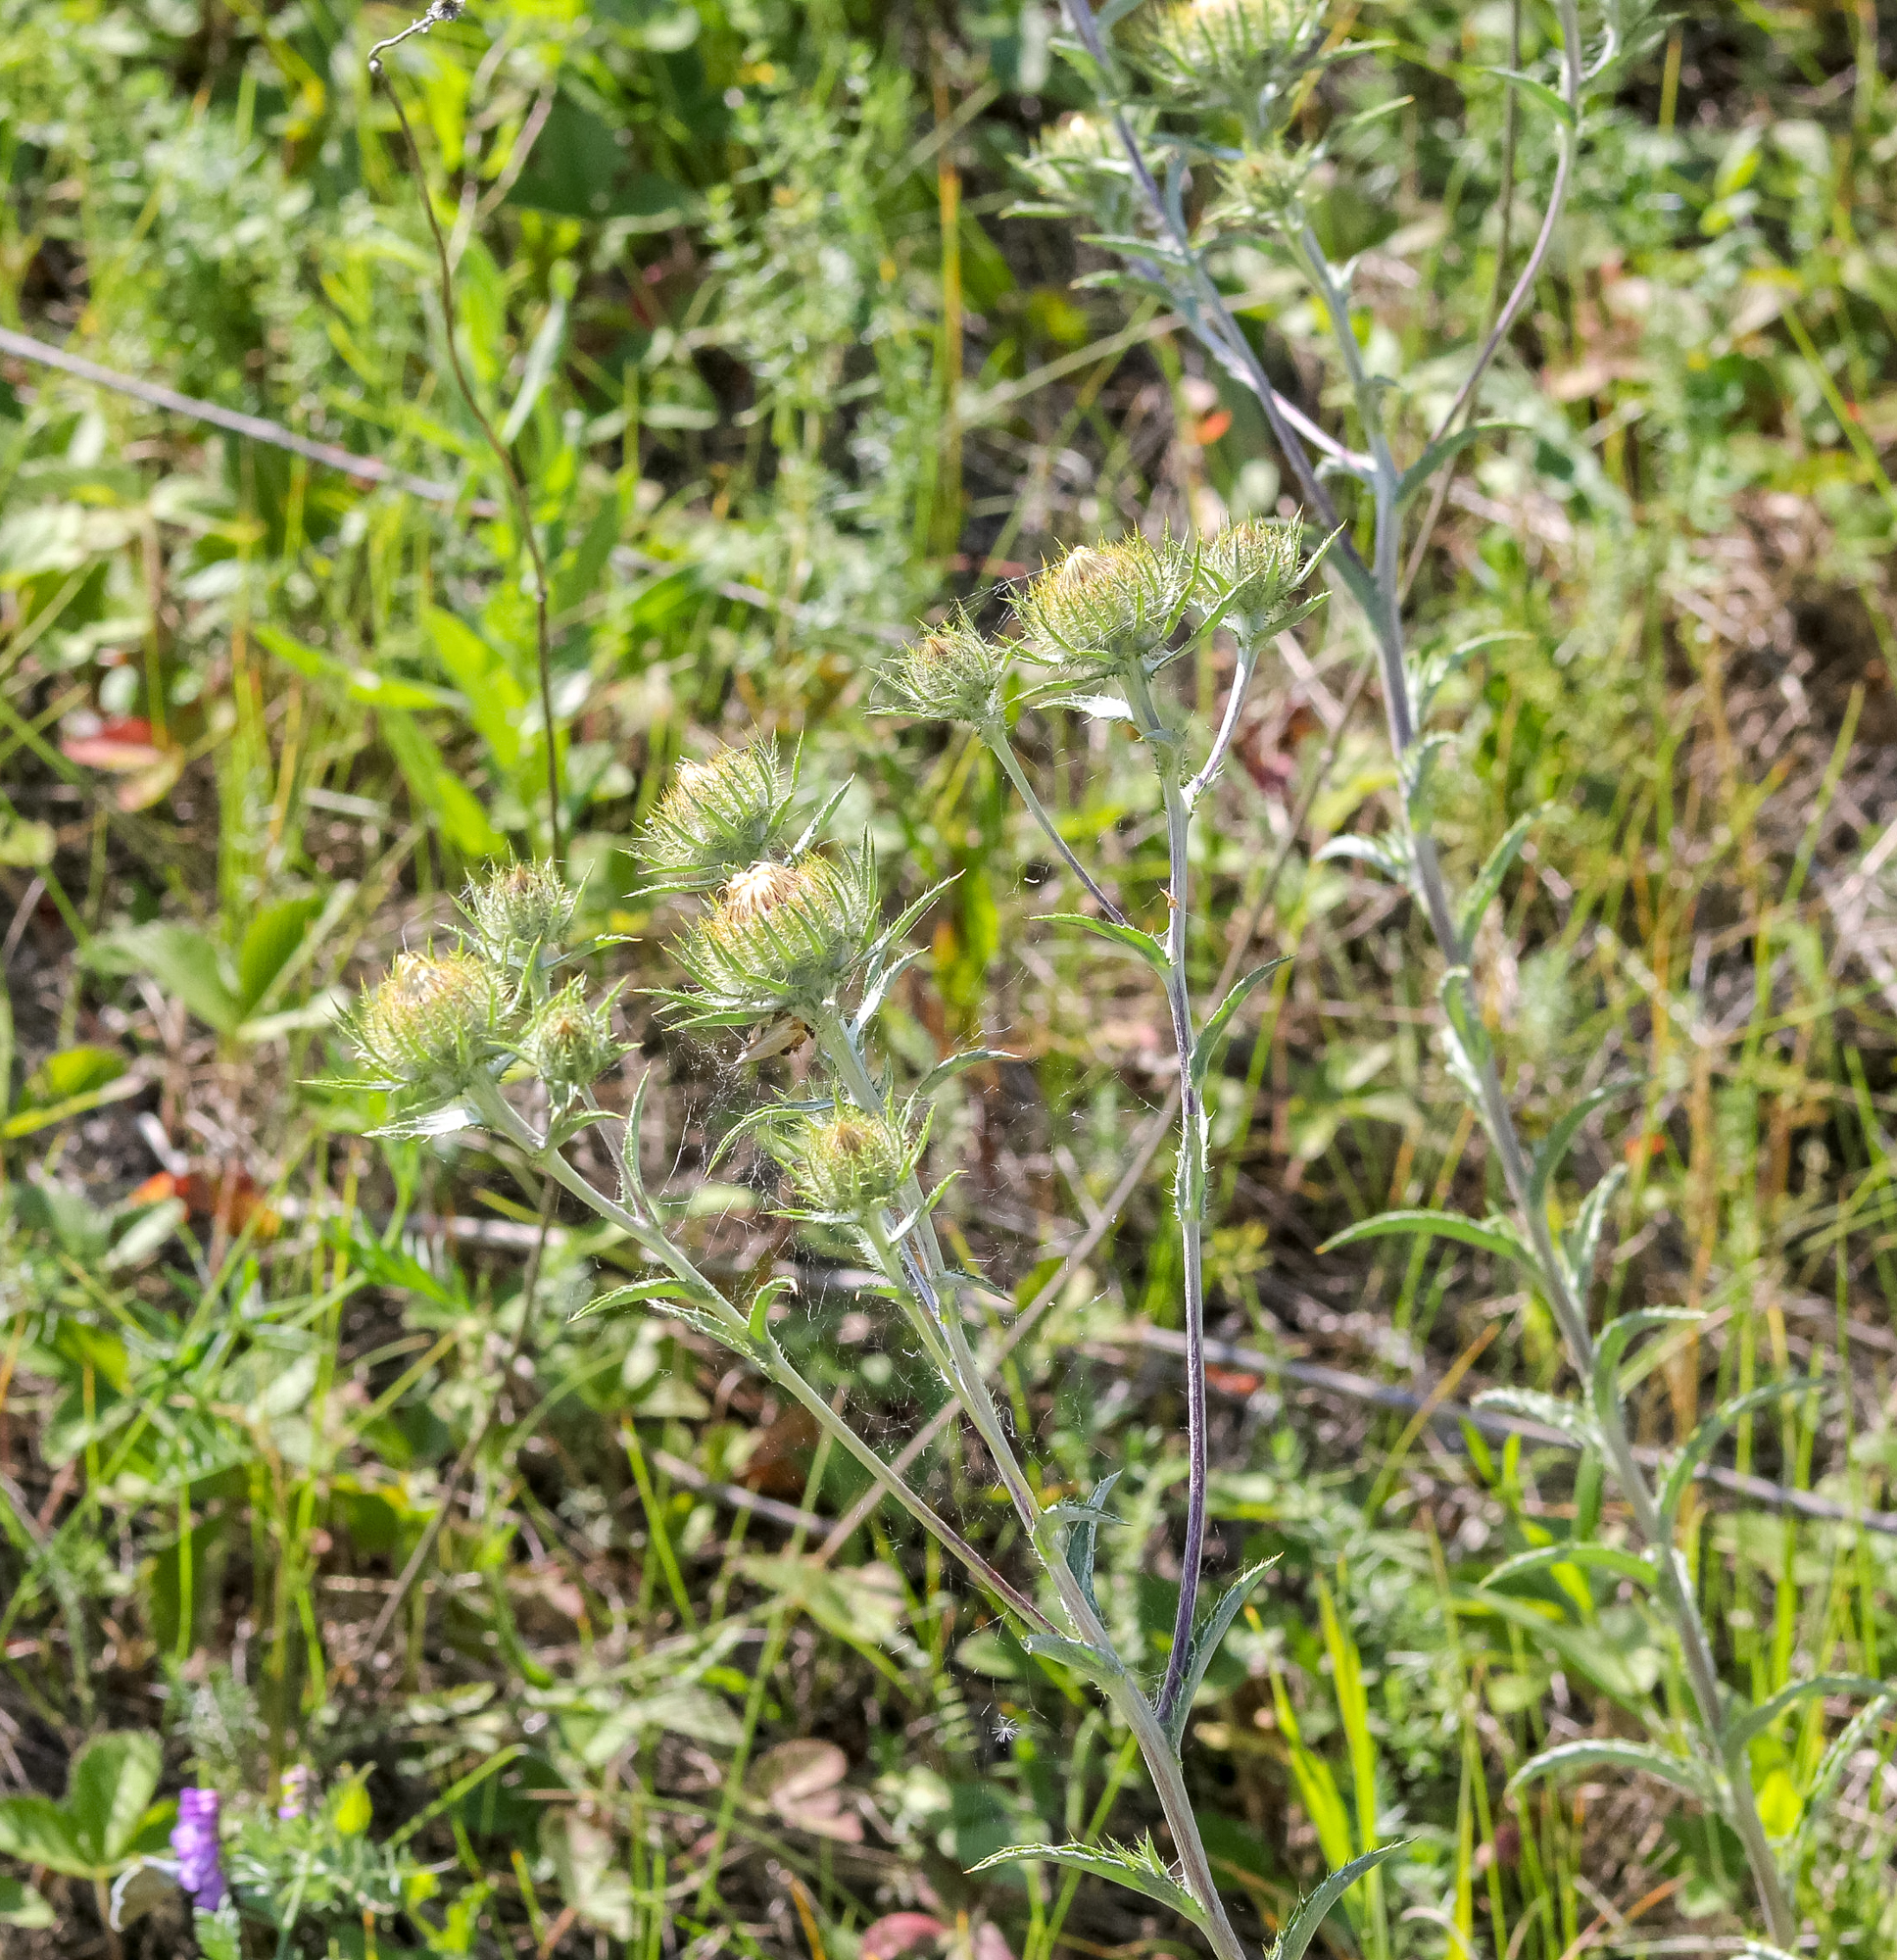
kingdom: Plantae
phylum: Tracheophyta
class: Magnoliopsida
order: Asterales
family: Asteraceae
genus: Carlina
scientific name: Carlina biebersteinii
